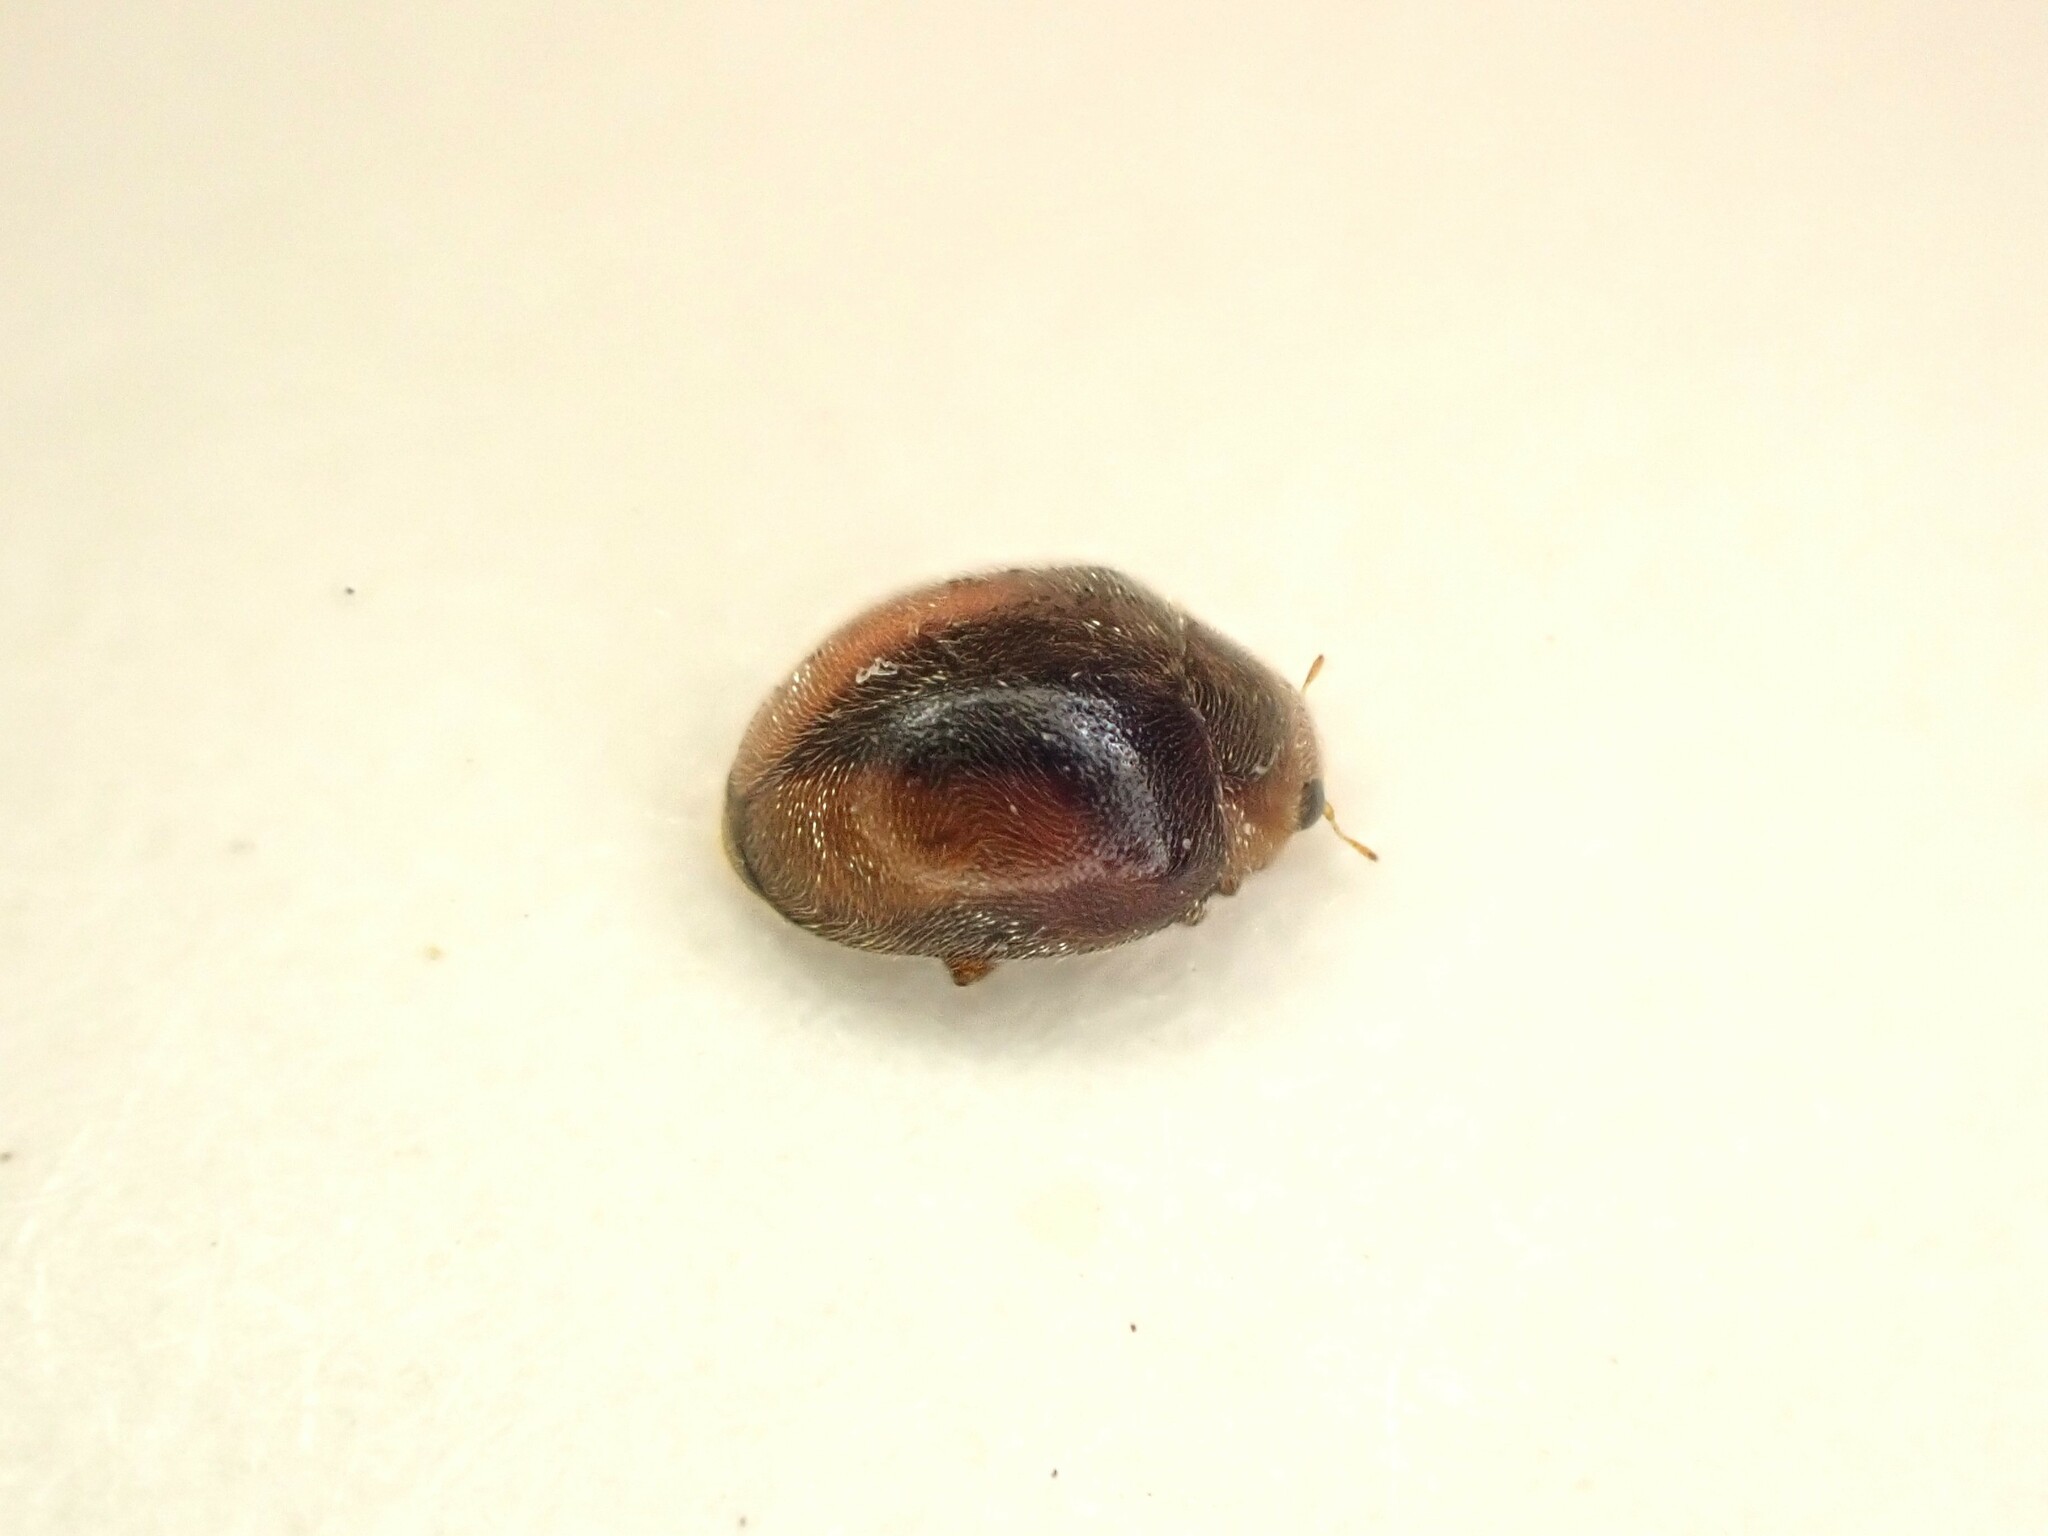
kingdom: Animalia
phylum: Arthropoda
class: Insecta
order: Coleoptera
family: Coccinellidae
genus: Scymnus
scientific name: Scymnus loewii
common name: Dusky lady beetle
